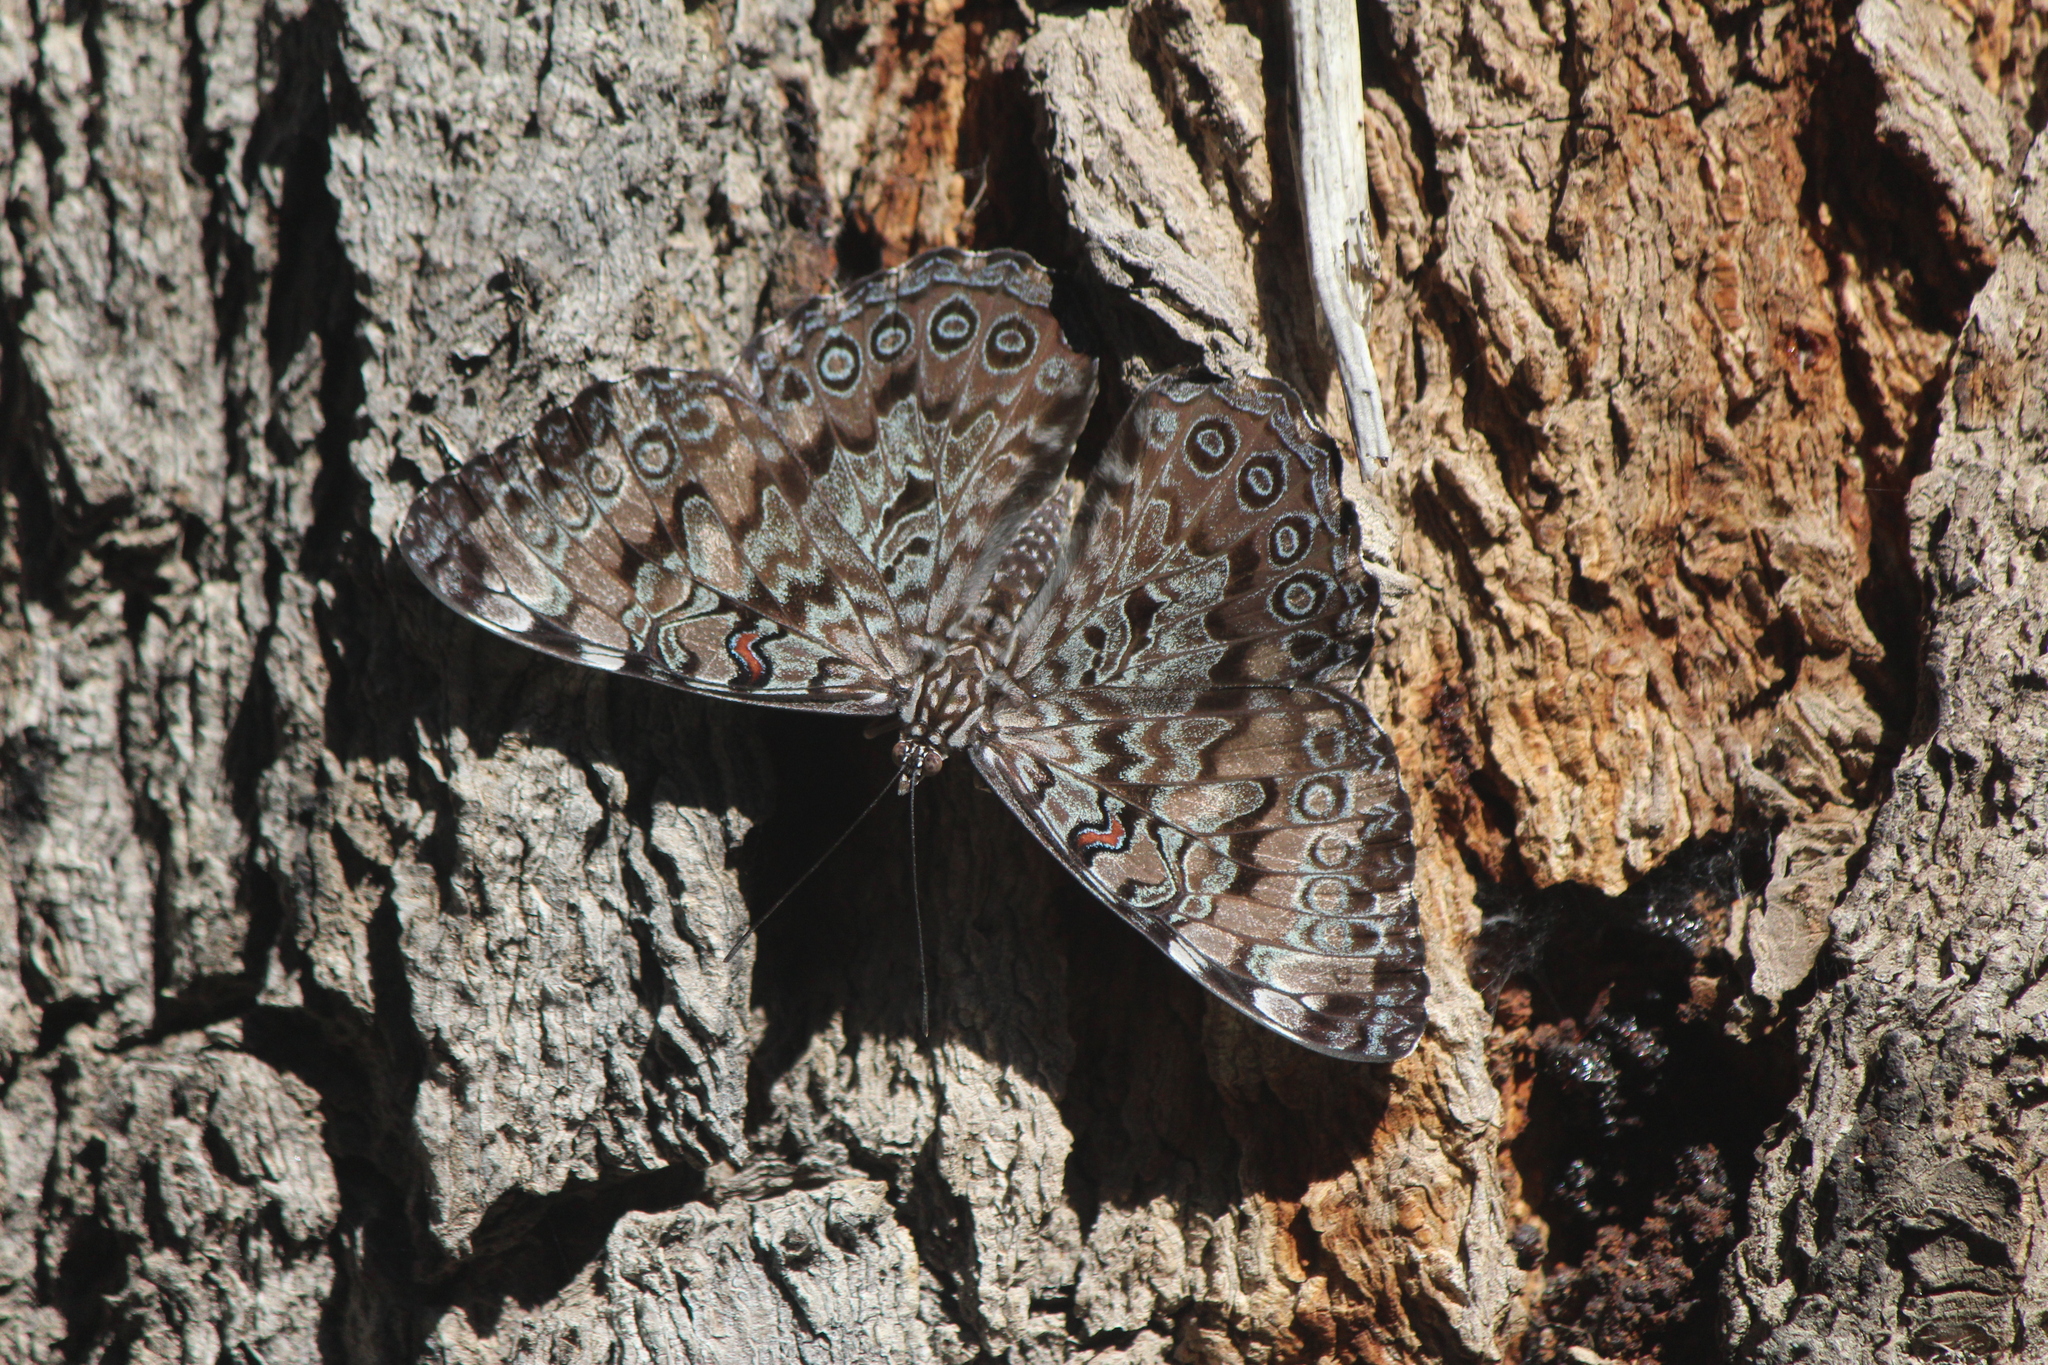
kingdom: Animalia
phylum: Arthropoda
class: Insecta
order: Lepidoptera
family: Nymphalidae
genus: Hamadryas
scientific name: Hamadryas guatemalena
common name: Guatemalan cracker
